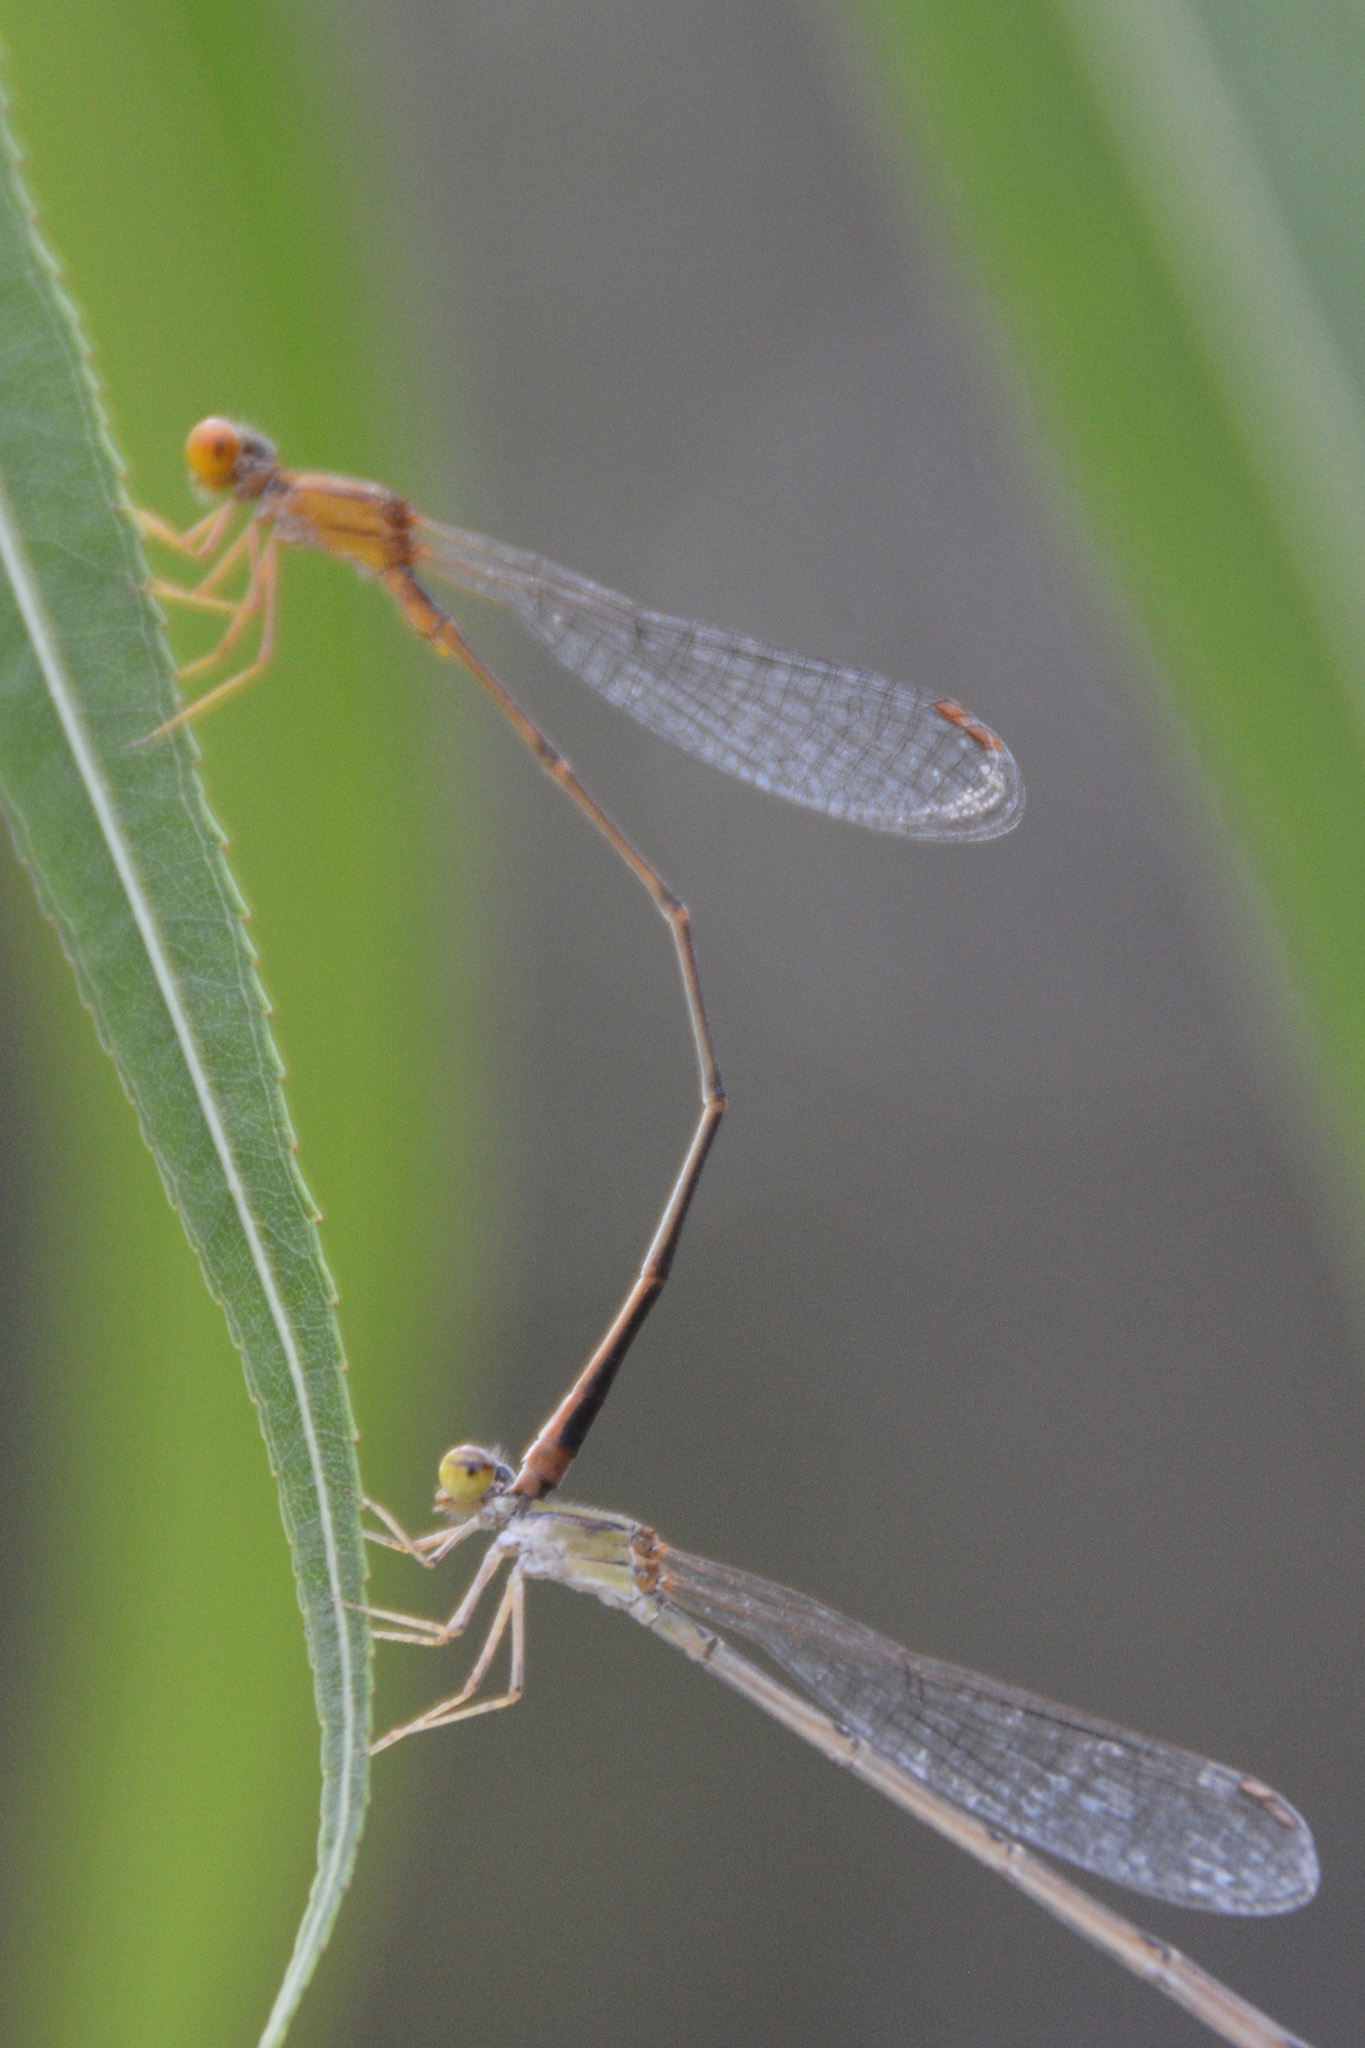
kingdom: Animalia
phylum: Arthropoda
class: Insecta
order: Odonata
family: Coenagrionidae
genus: Enallagma
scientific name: Enallagma signatum
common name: Orange bluet
